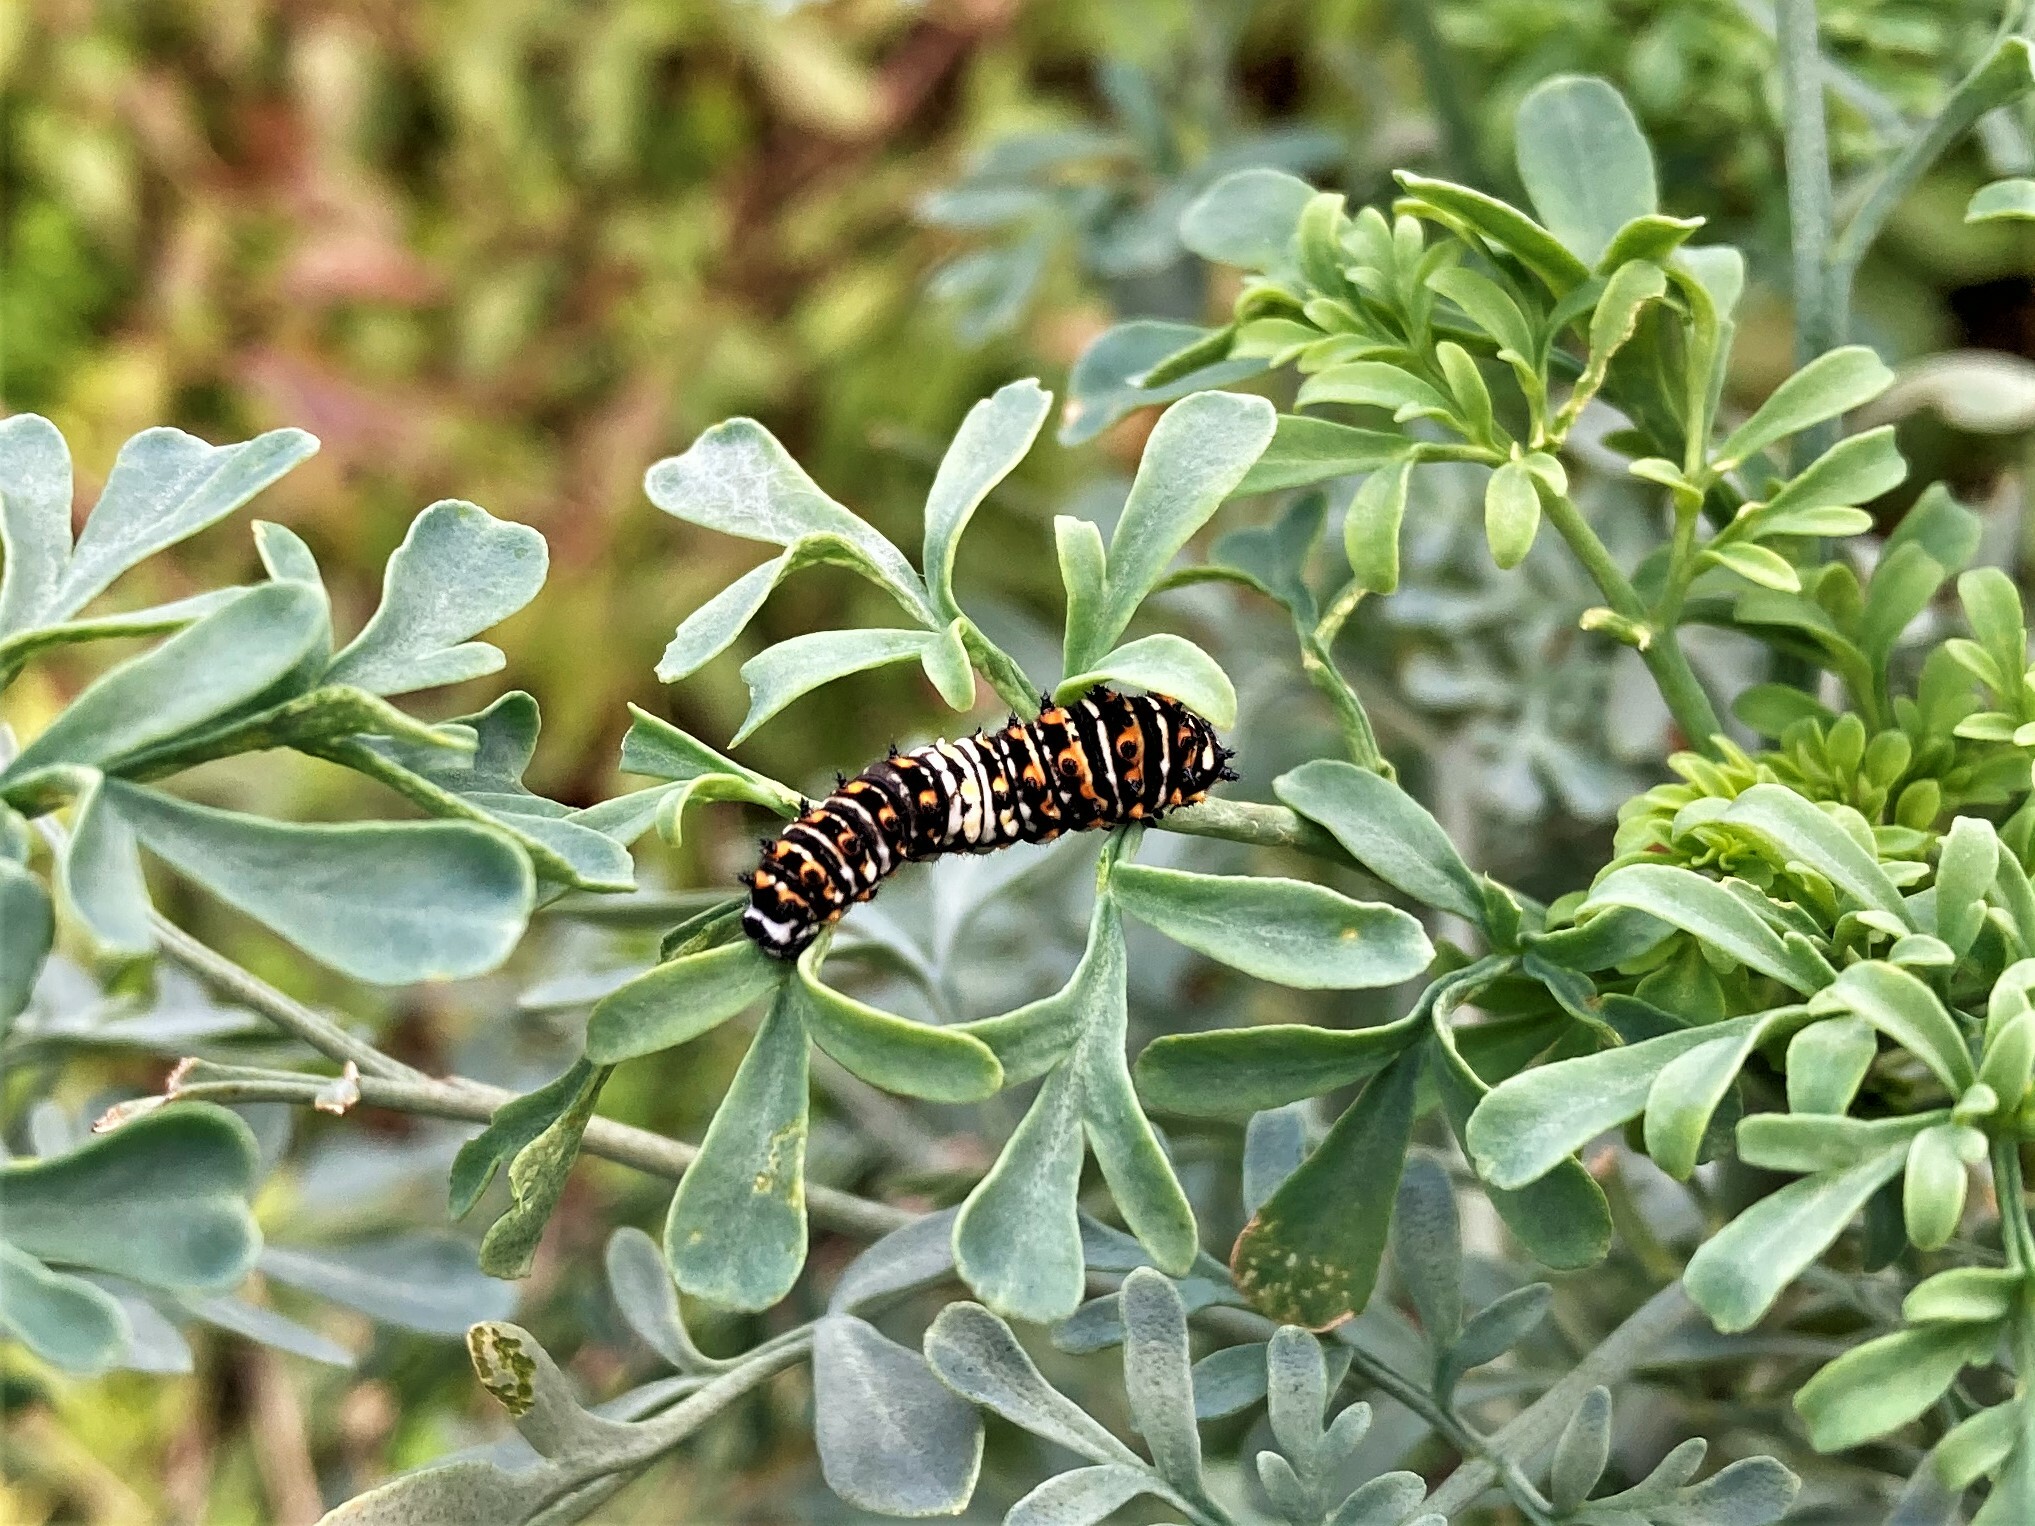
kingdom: Animalia
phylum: Arthropoda
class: Insecta
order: Lepidoptera
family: Papilionidae
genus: Papilio
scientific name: Papilio polyxenes
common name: Black swallowtail
